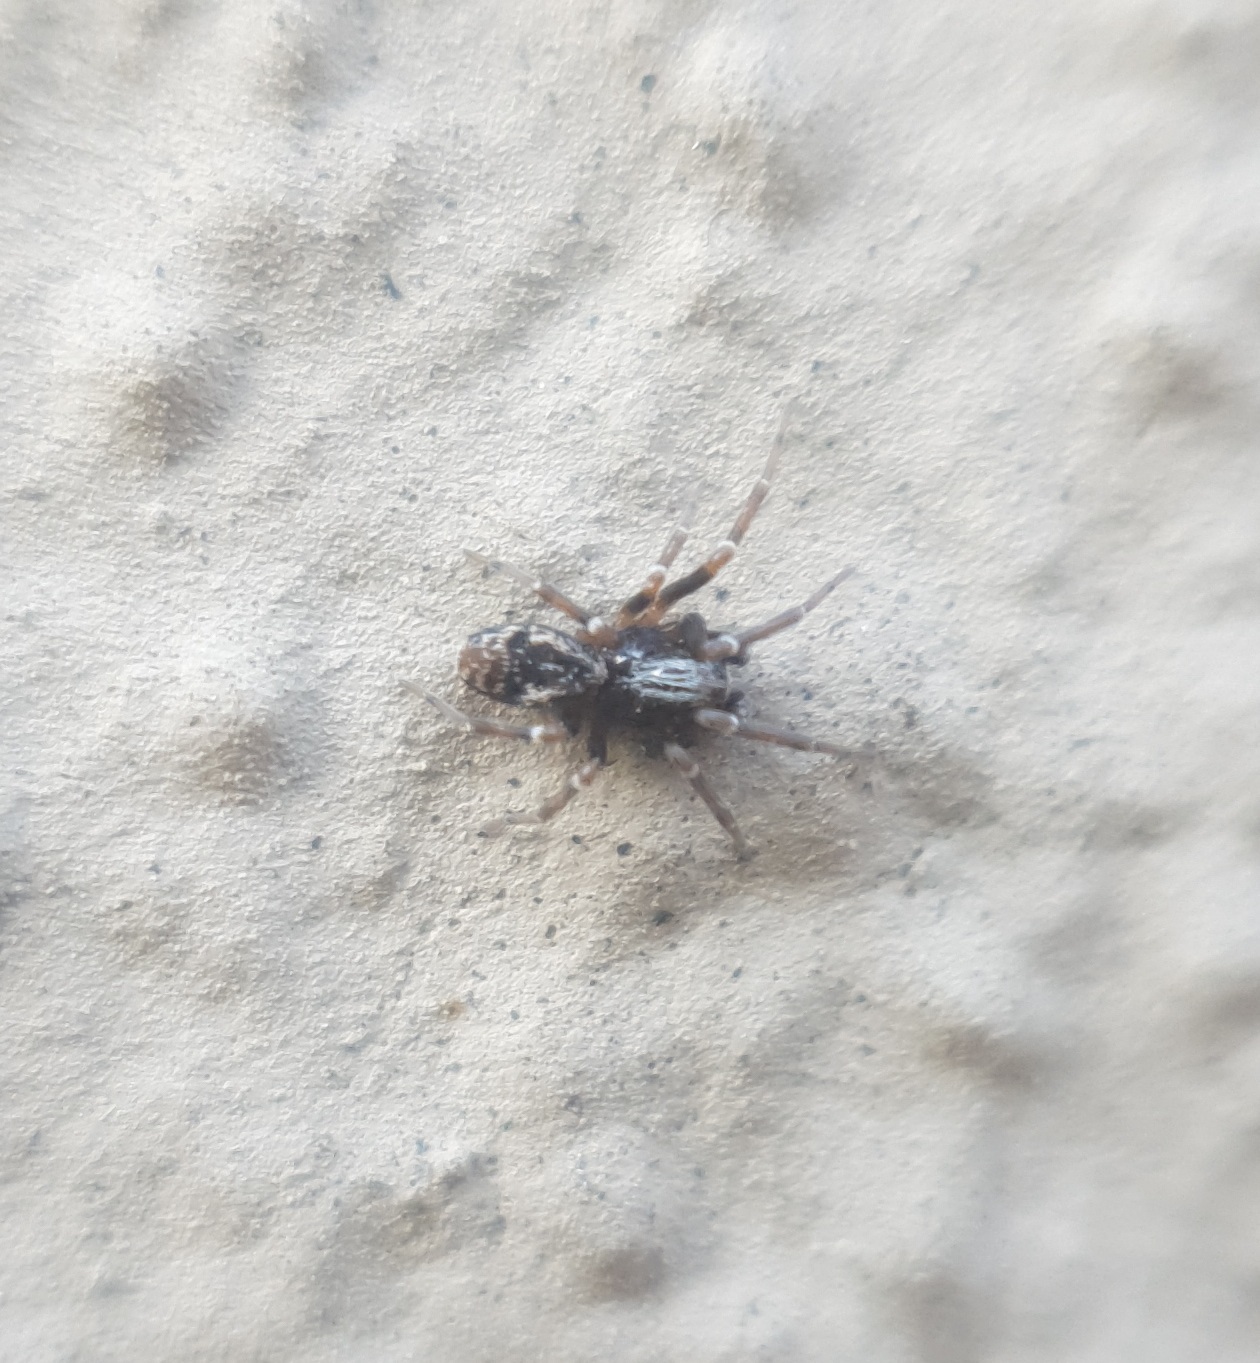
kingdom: Animalia
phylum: Arthropoda
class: Arachnida
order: Araneae
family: Dictynidae
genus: Brigittea
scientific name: Brigittea civica
